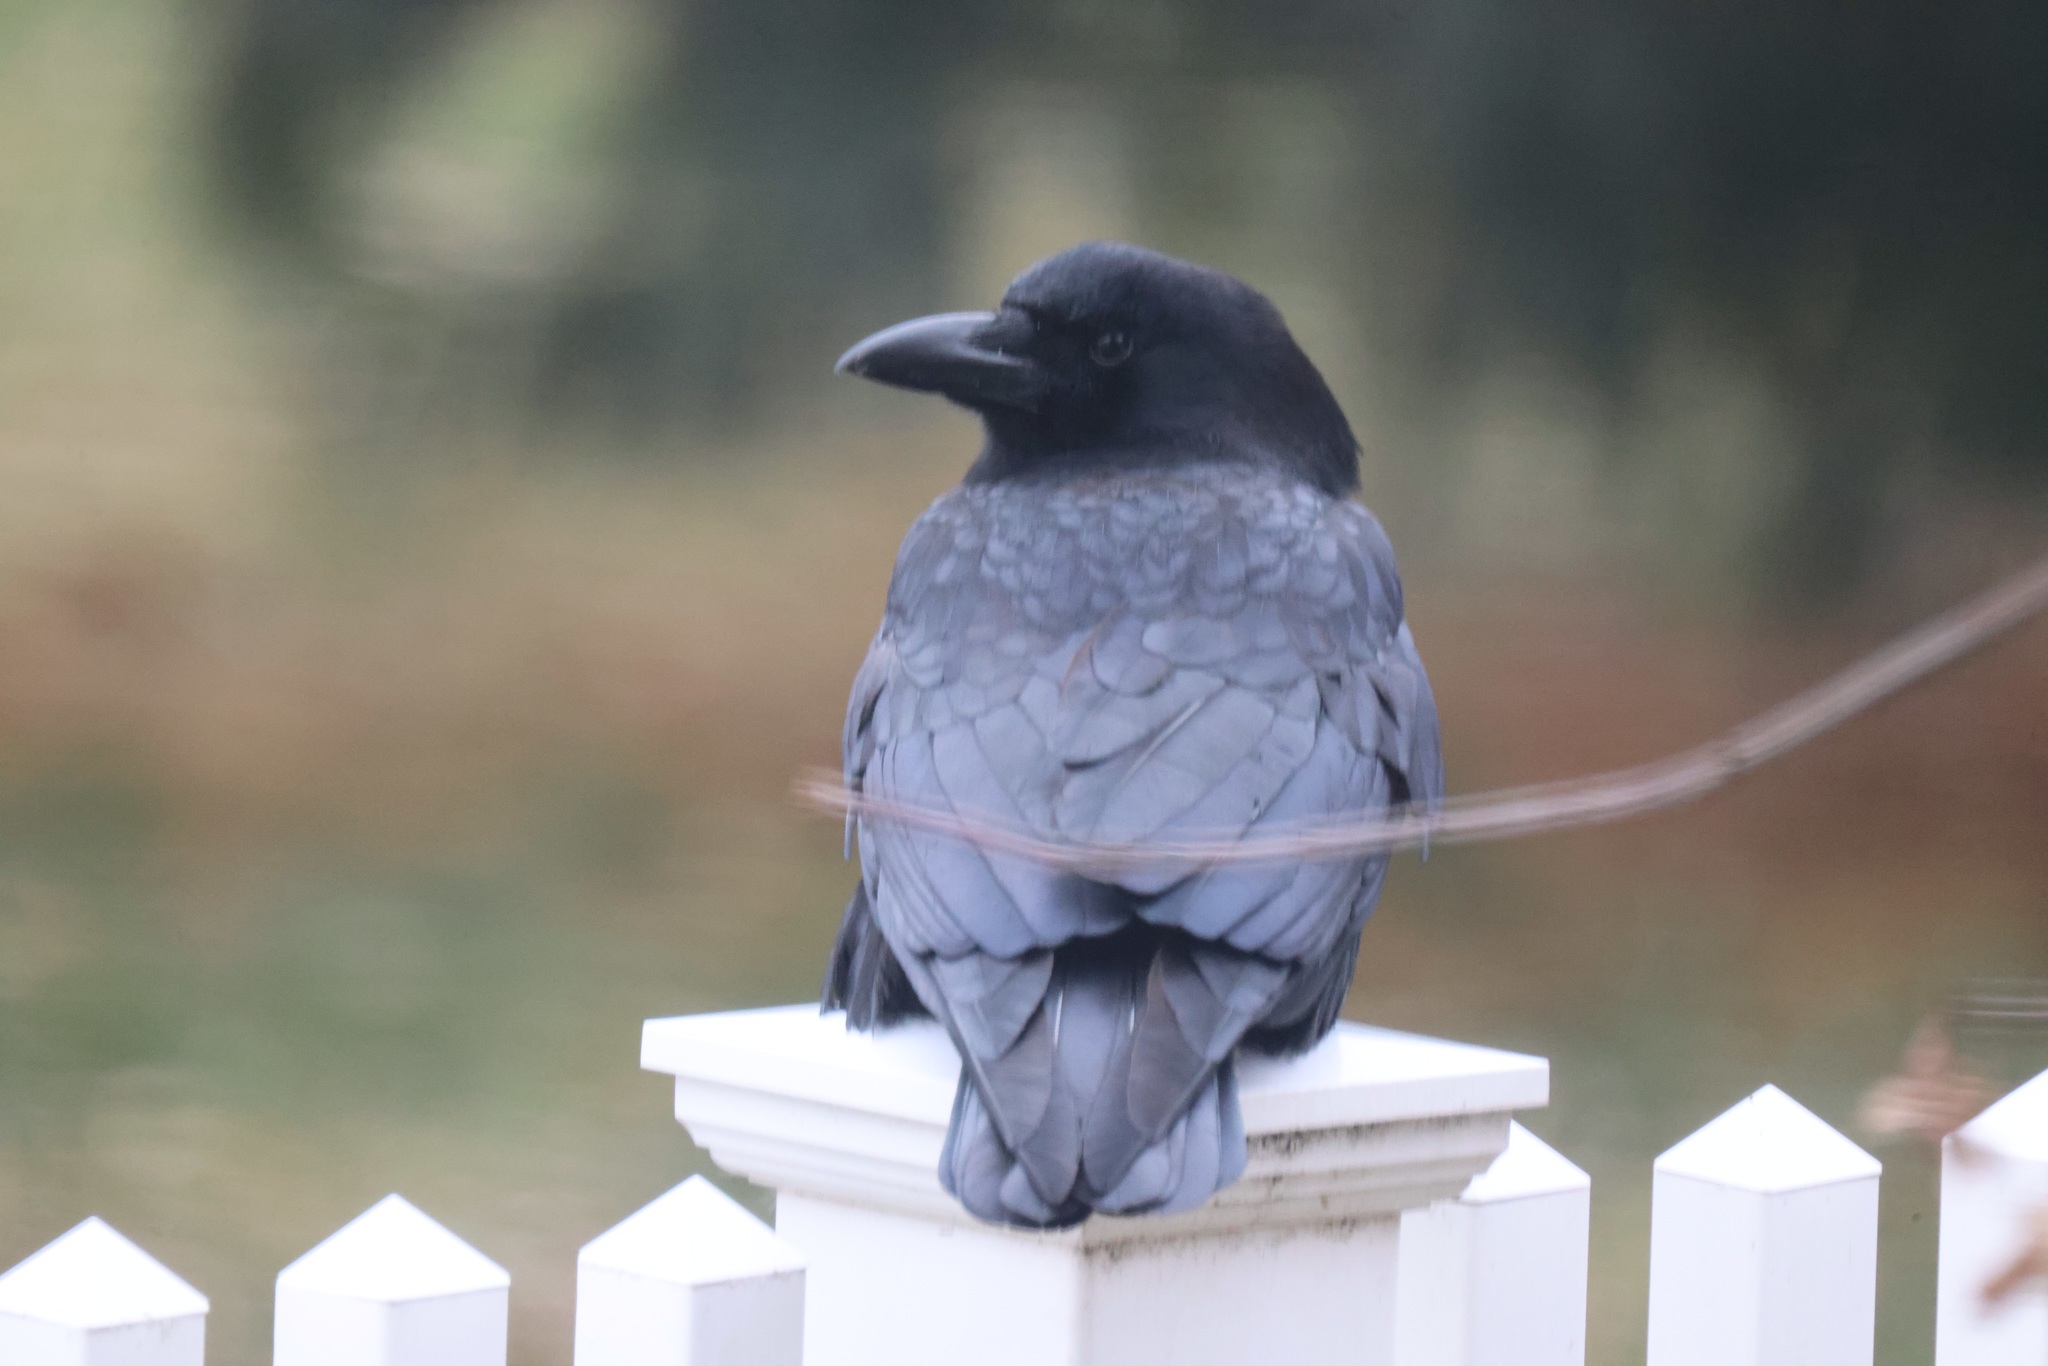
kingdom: Animalia
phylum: Chordata
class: Aves
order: Passeriformes
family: Corvidae
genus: Corvus
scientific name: Corvus brachyrhynchos
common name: American crow
